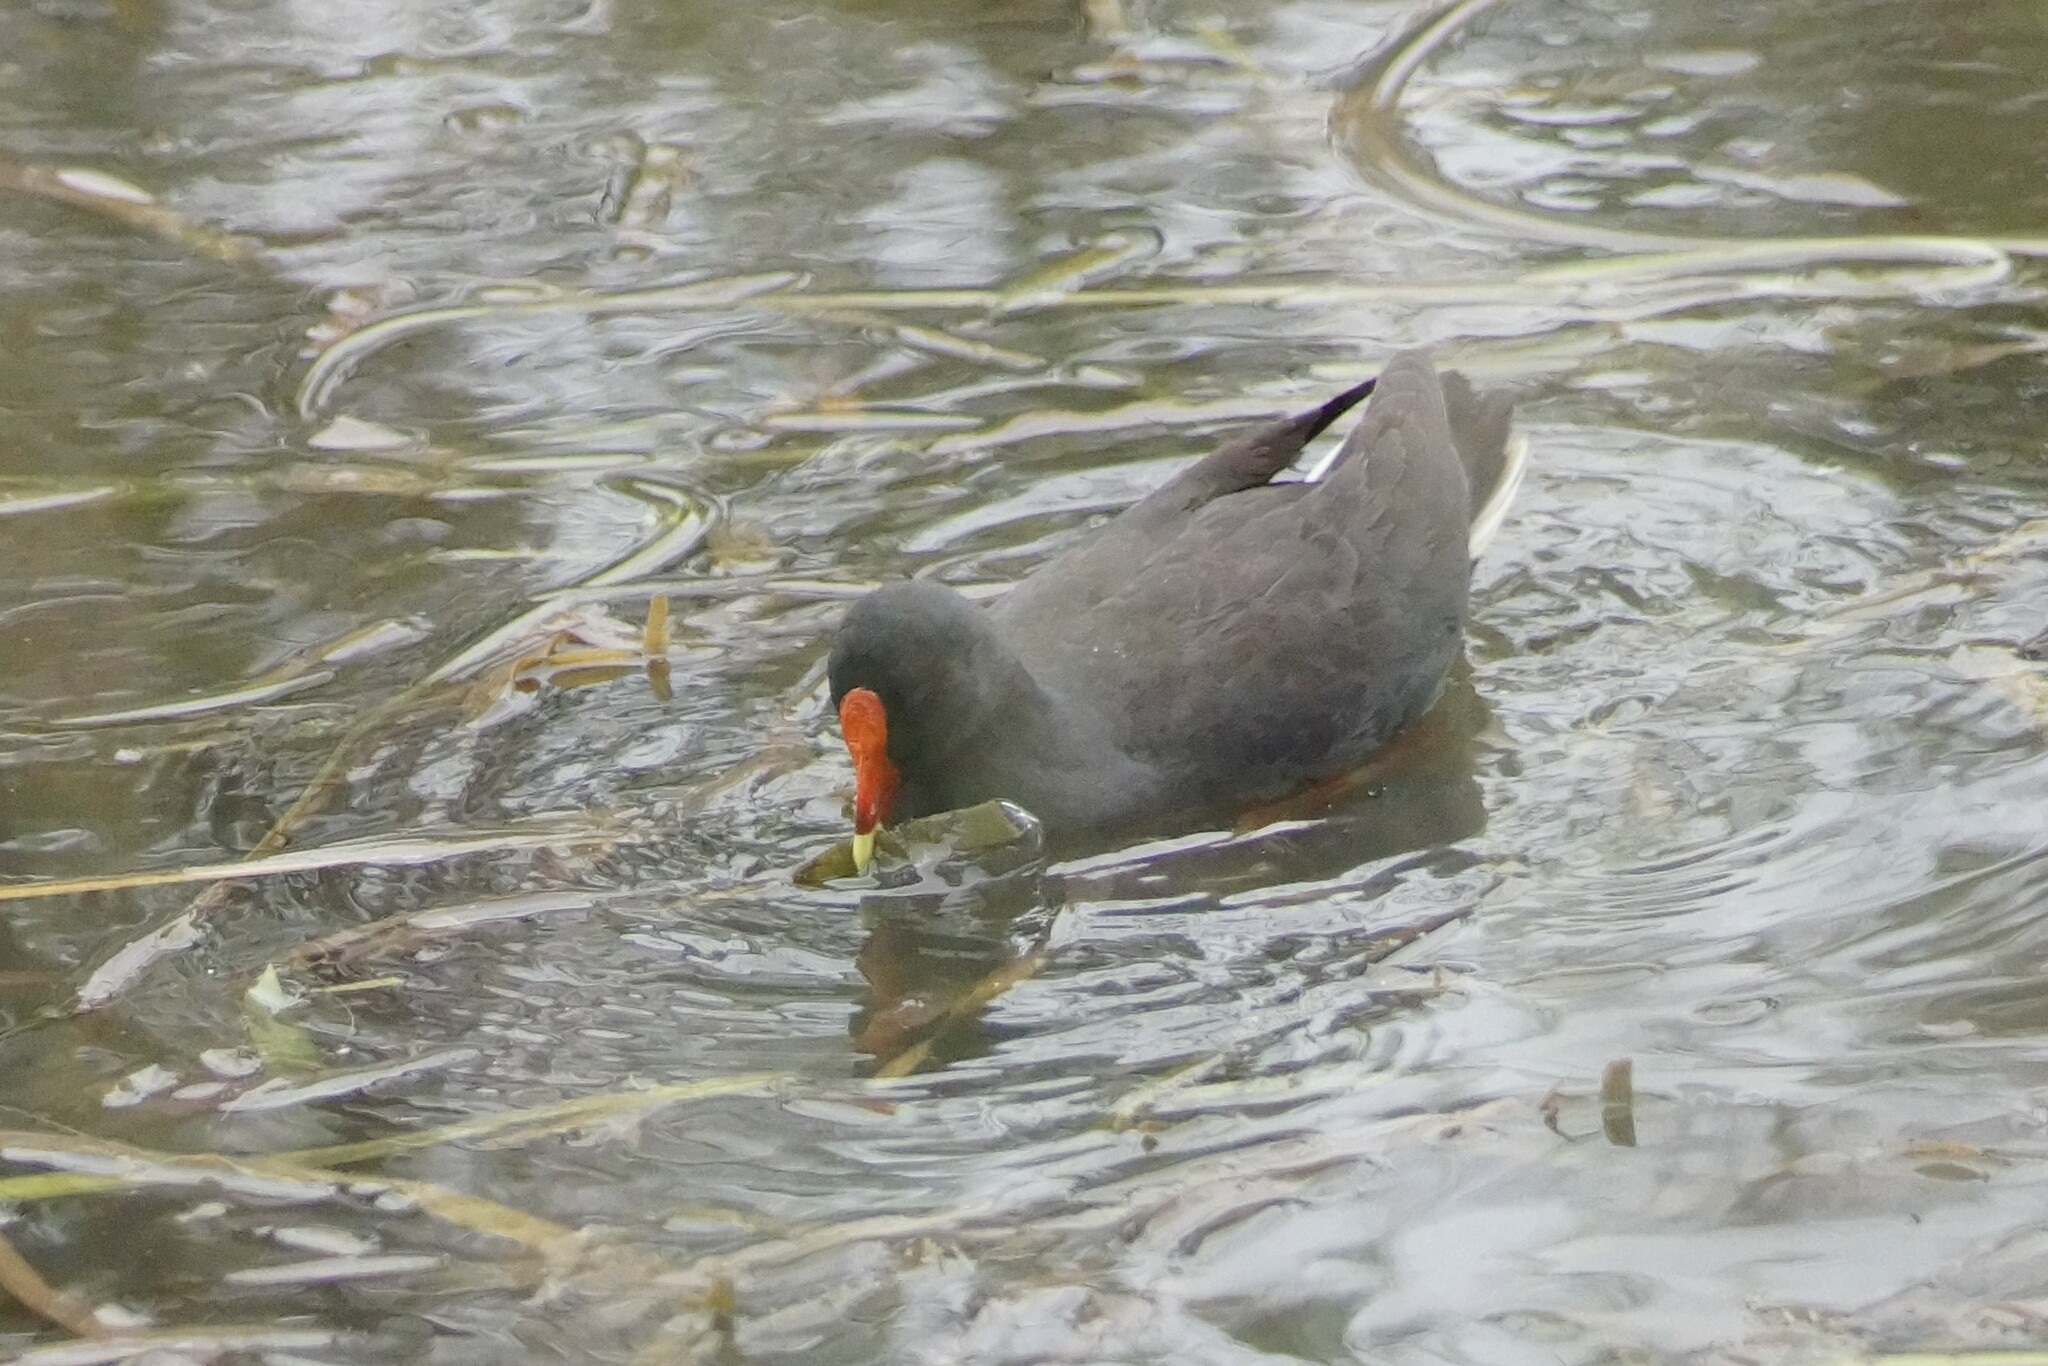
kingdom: Animalia
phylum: Chordata
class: Aves
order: Gruiformes
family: Rallidae
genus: Gallinula
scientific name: Gallinula tenebrosa
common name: Dusky moorhen
